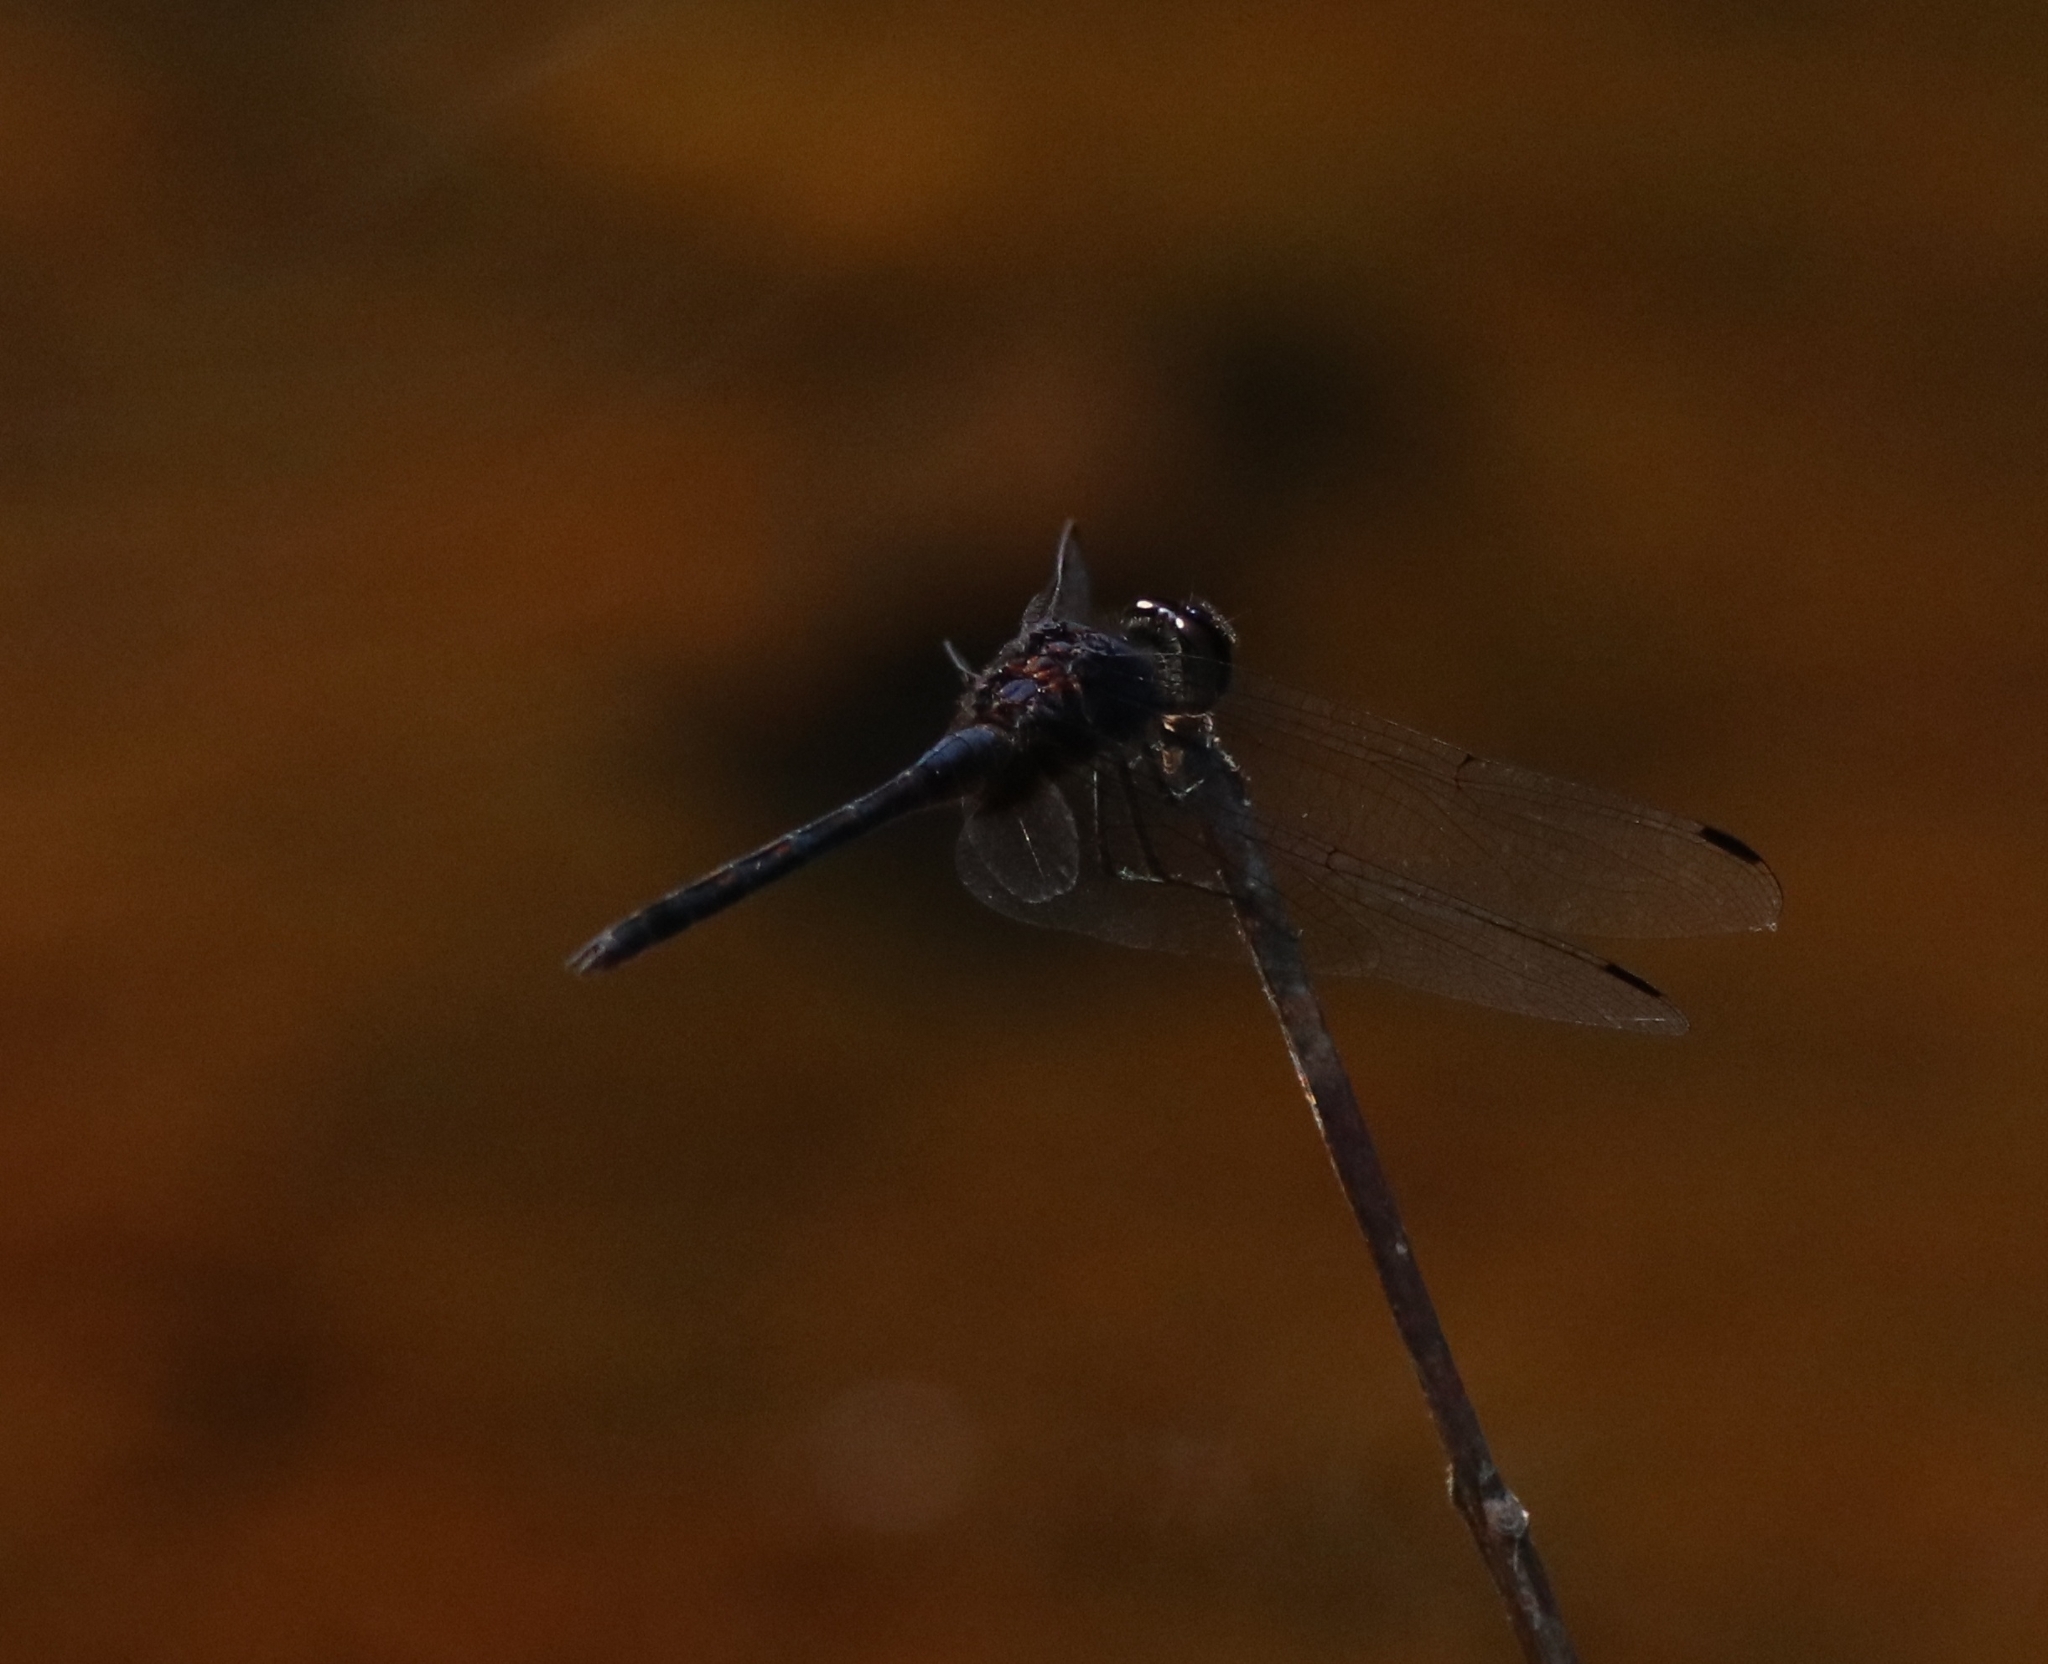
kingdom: Animalia
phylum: Arthropoda
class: Insecta
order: Odonata
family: Libellulidae
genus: Trithemis
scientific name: Trithemis festiva
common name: Indigo dropwing
